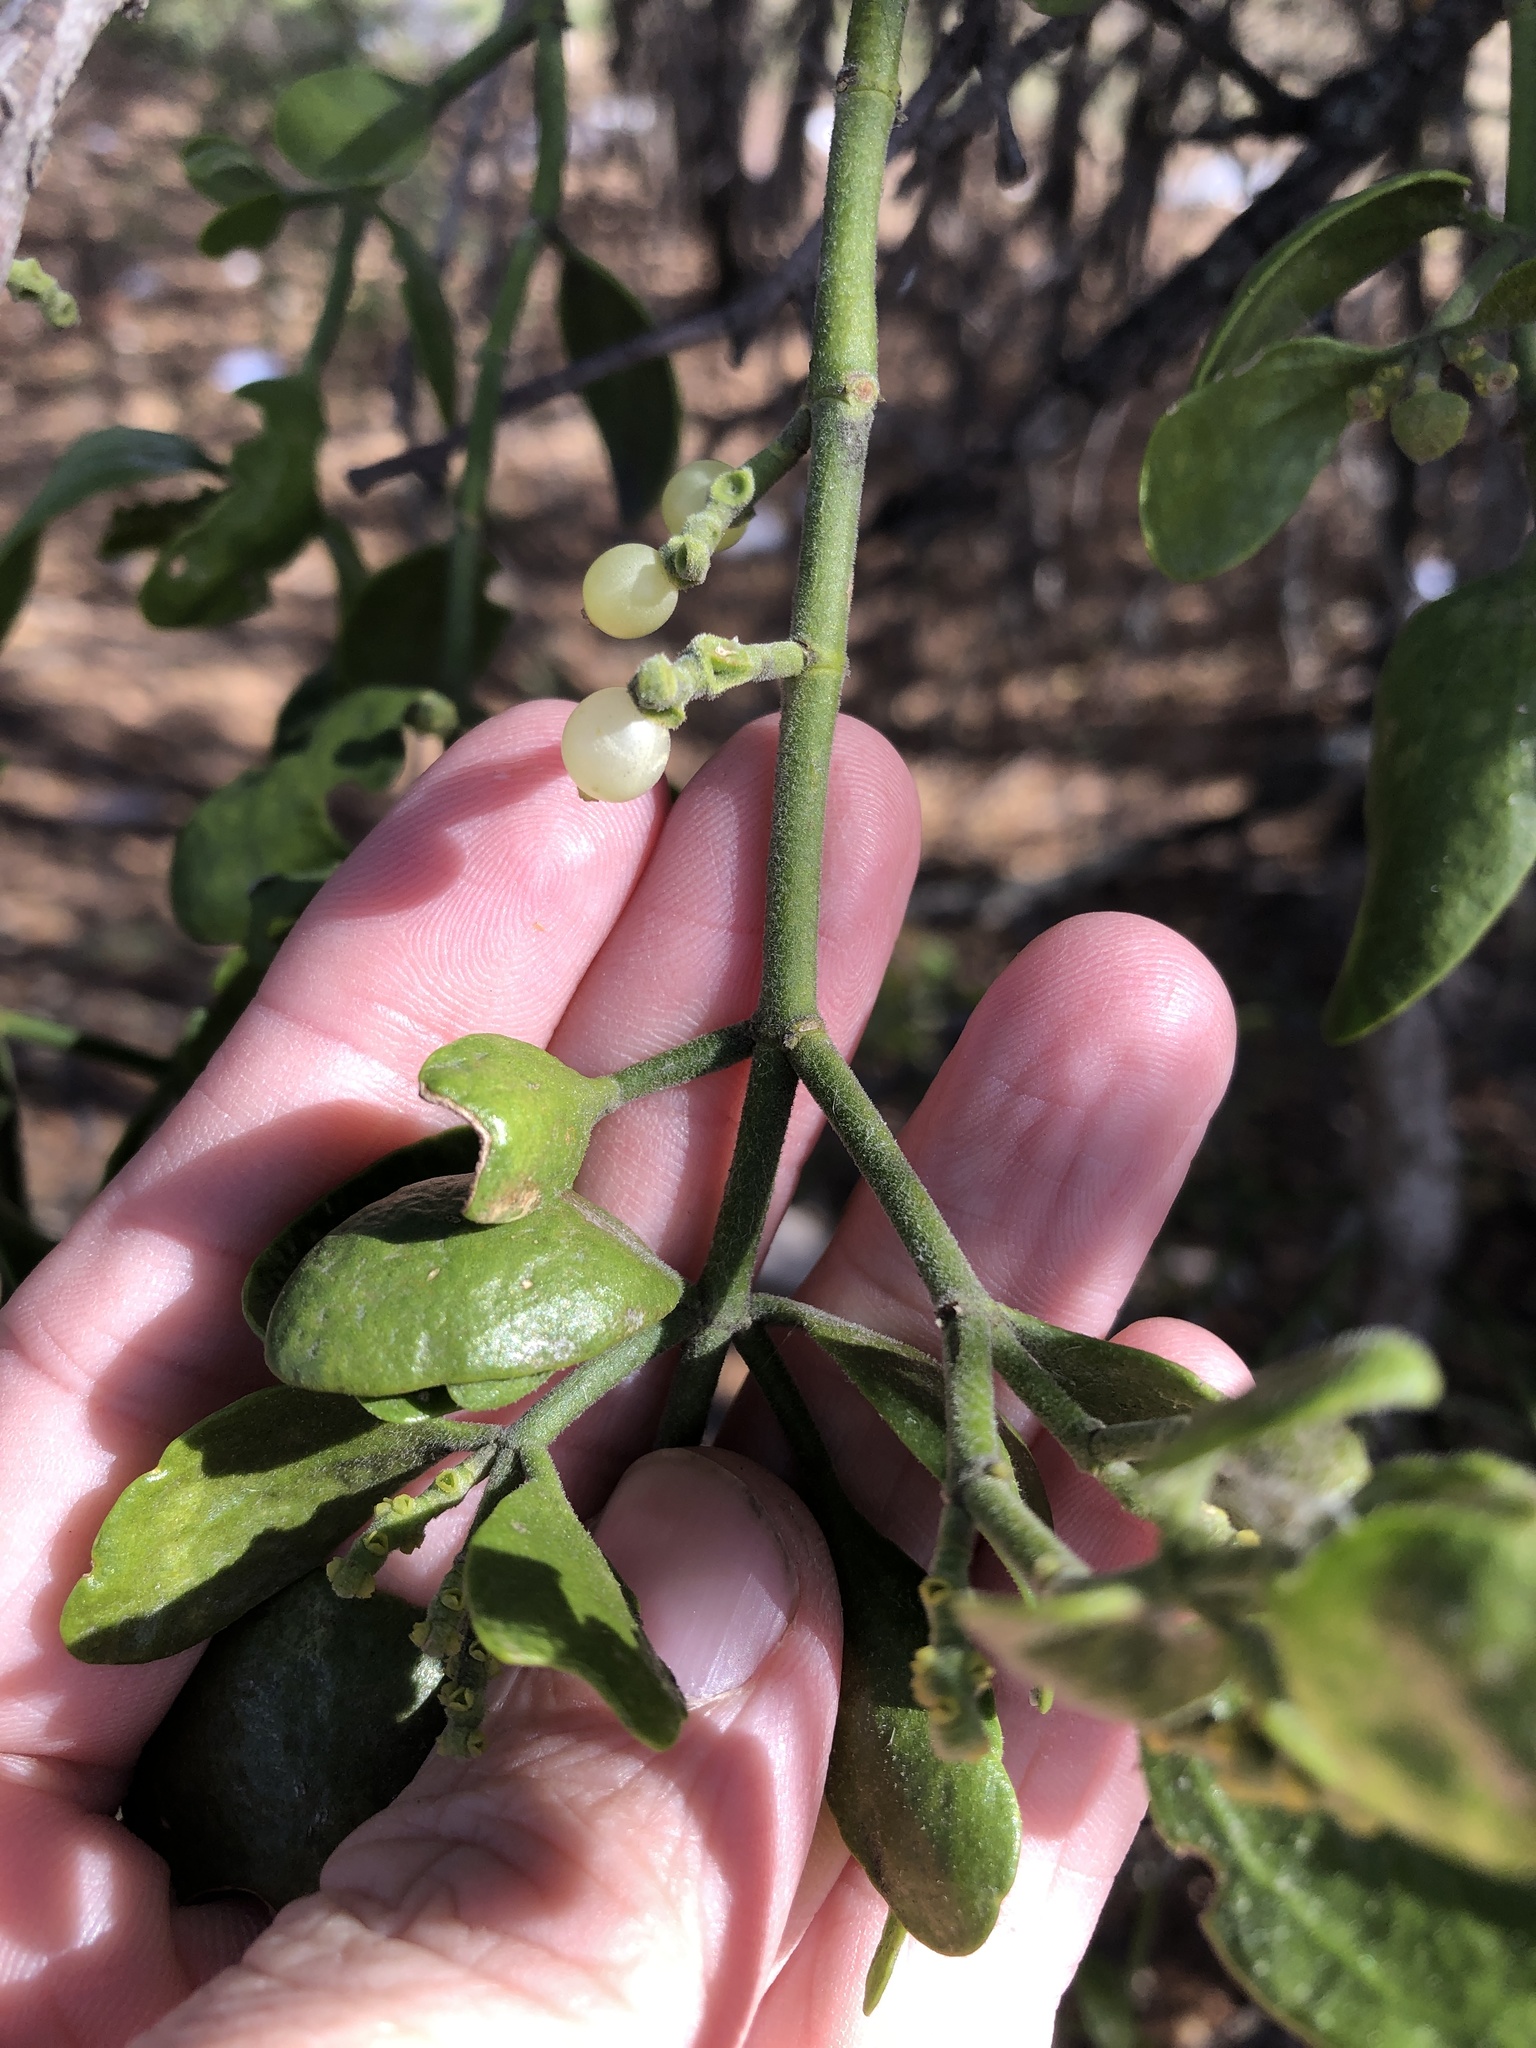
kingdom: Plantae
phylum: Tracheophyta
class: Magnoliopsida
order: Santalales
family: Viscaceae
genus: Phoradendron
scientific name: Phoradendron leucarpum
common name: Pacific mistletoe
